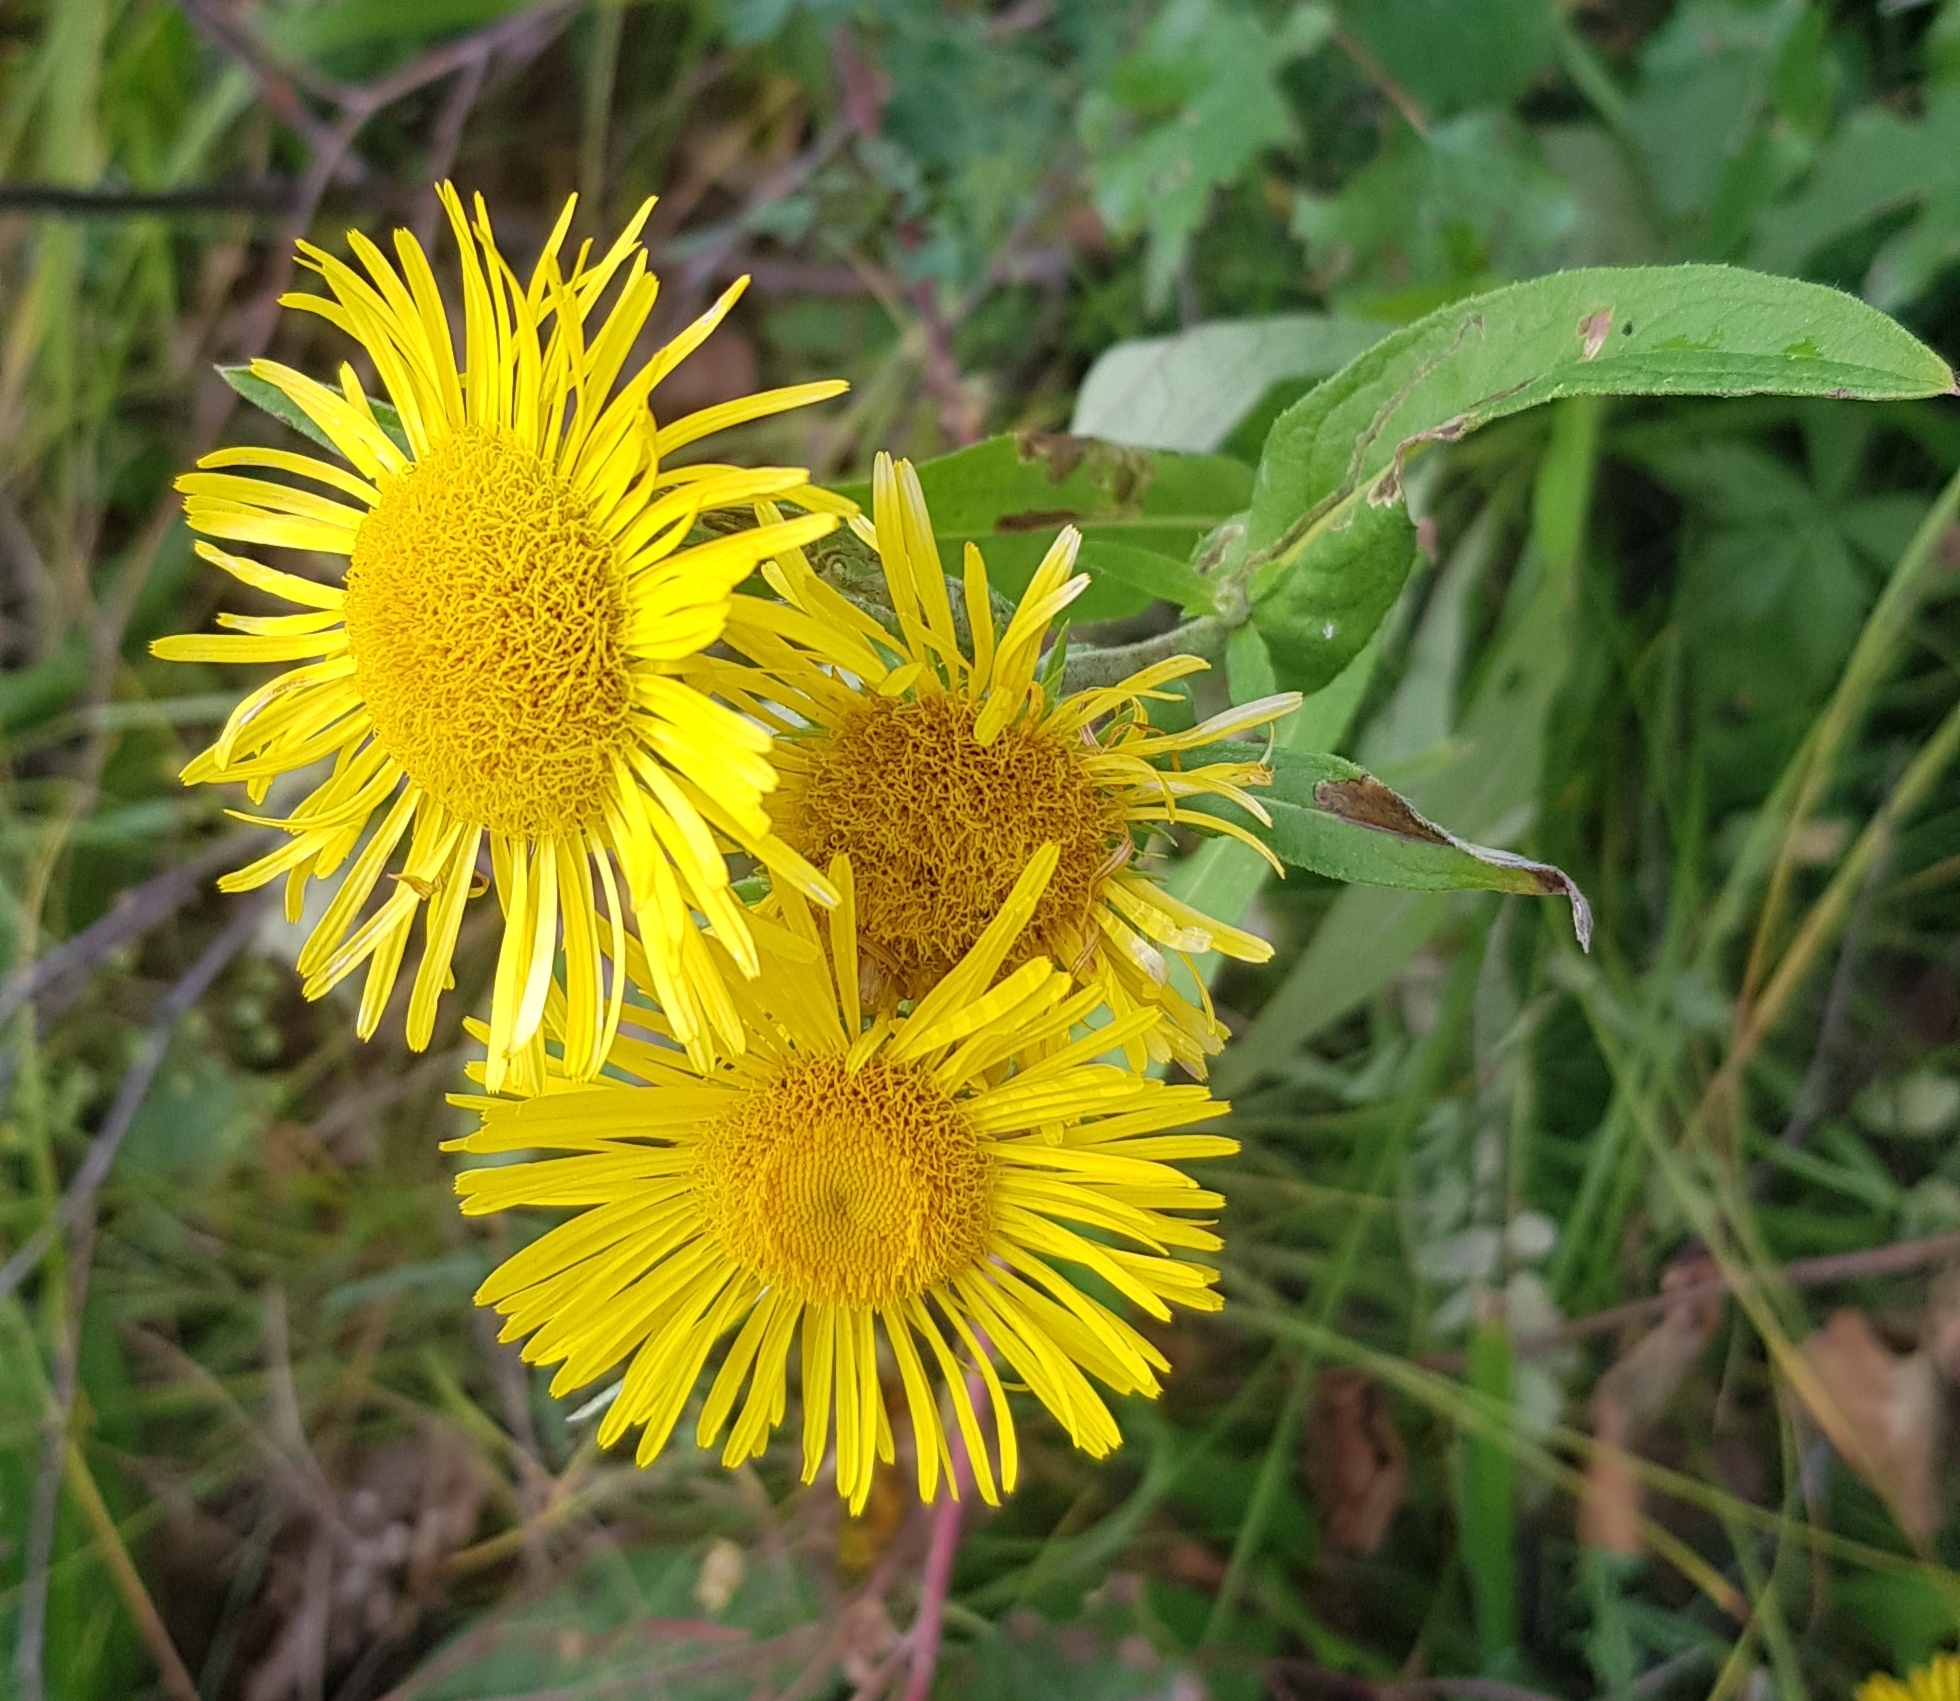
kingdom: Plantae
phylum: Tracheophyta
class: Magnoliopsida
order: Asterales
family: Asteraceae
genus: Pentanema
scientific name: Pentanema britannicum
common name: British elecampane
